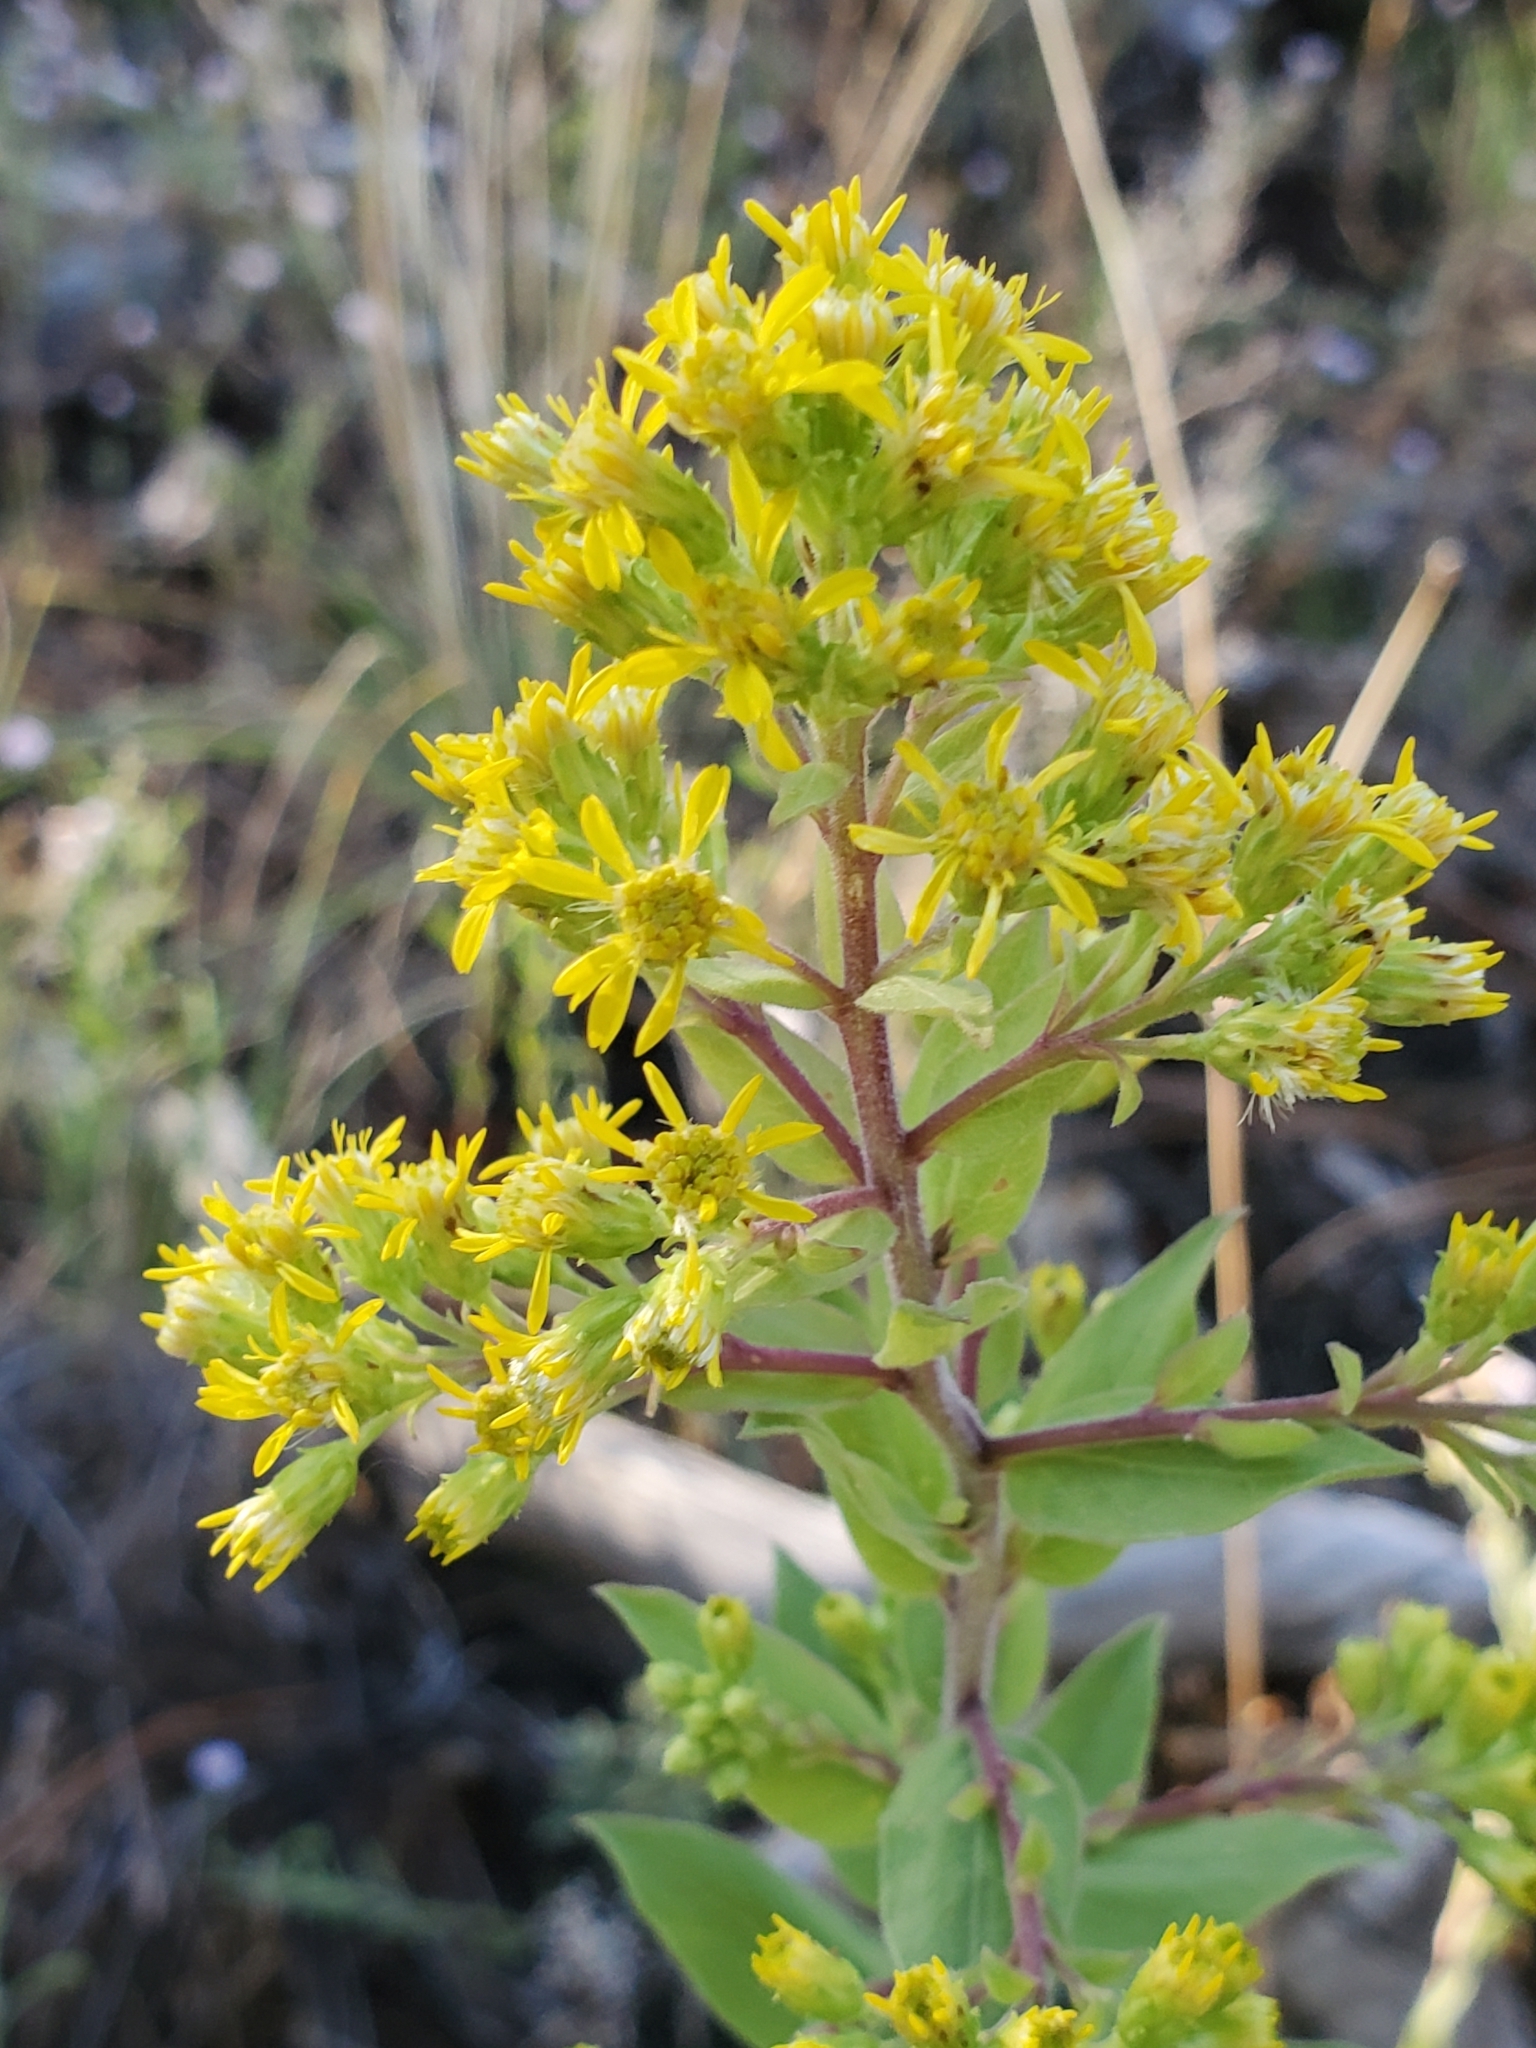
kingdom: Plantae
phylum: Tracheophyta
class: Magnoliopsida
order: Asterales
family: Asteraceae
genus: Solidago
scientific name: Solidago wrightii
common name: Wright's goldenrod
